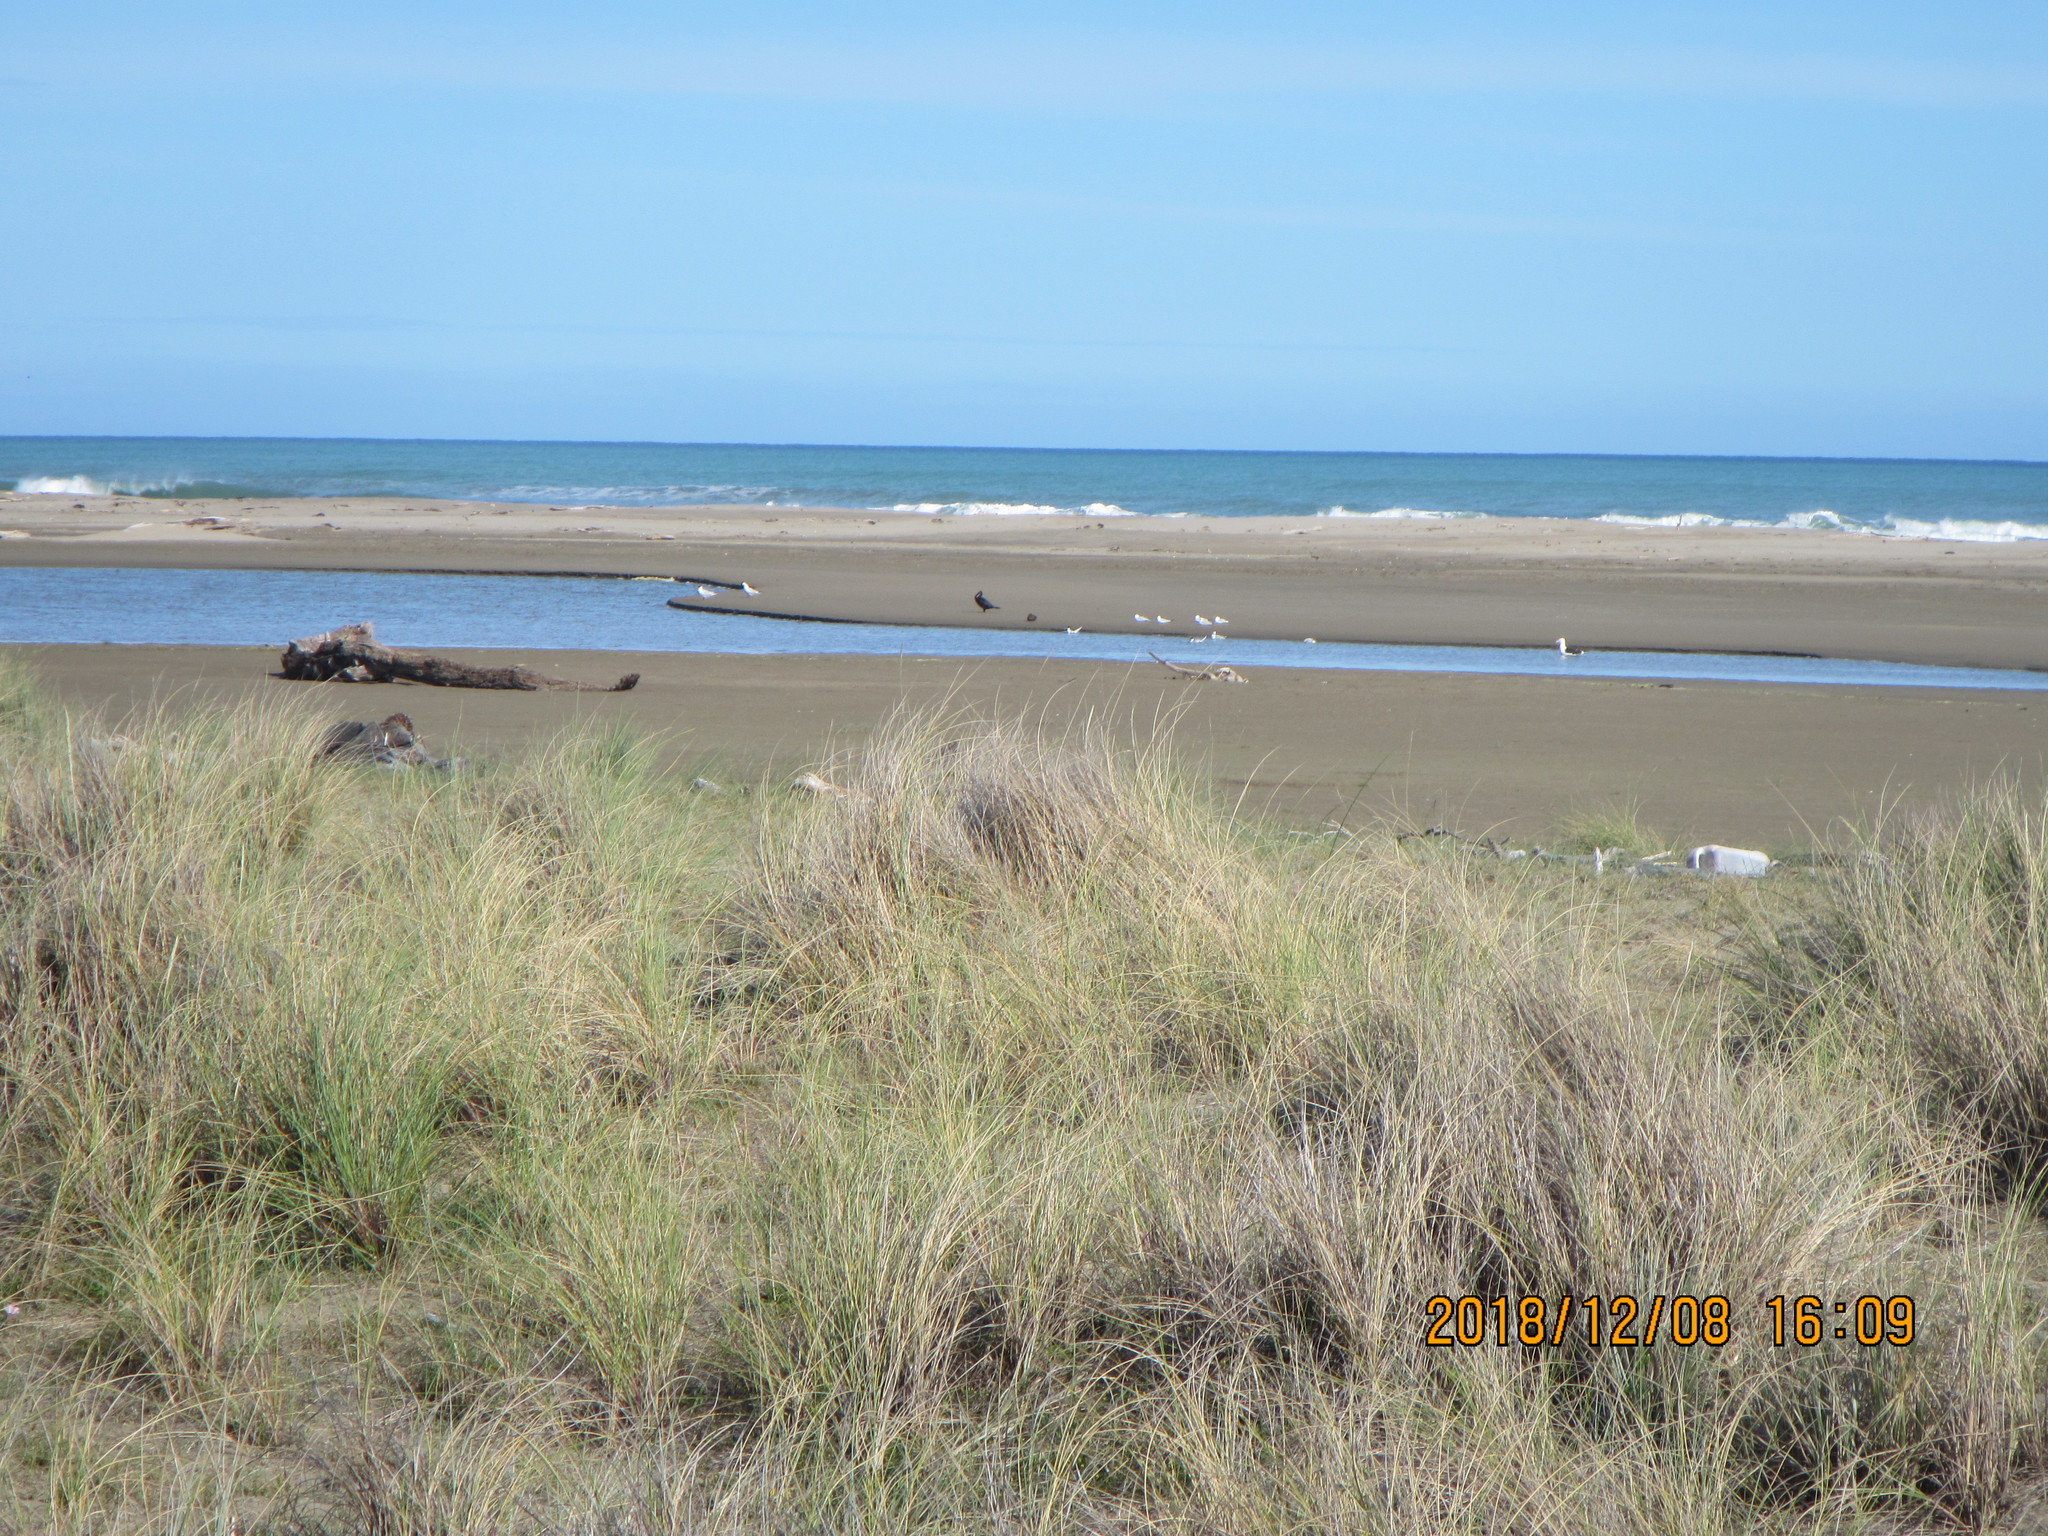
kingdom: Animalia
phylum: Chordata
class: Aves
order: Suliformes
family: Phalacrocoracidae
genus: Phalacrocorax
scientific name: Phalacrocorax carbo
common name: Great cormorant
